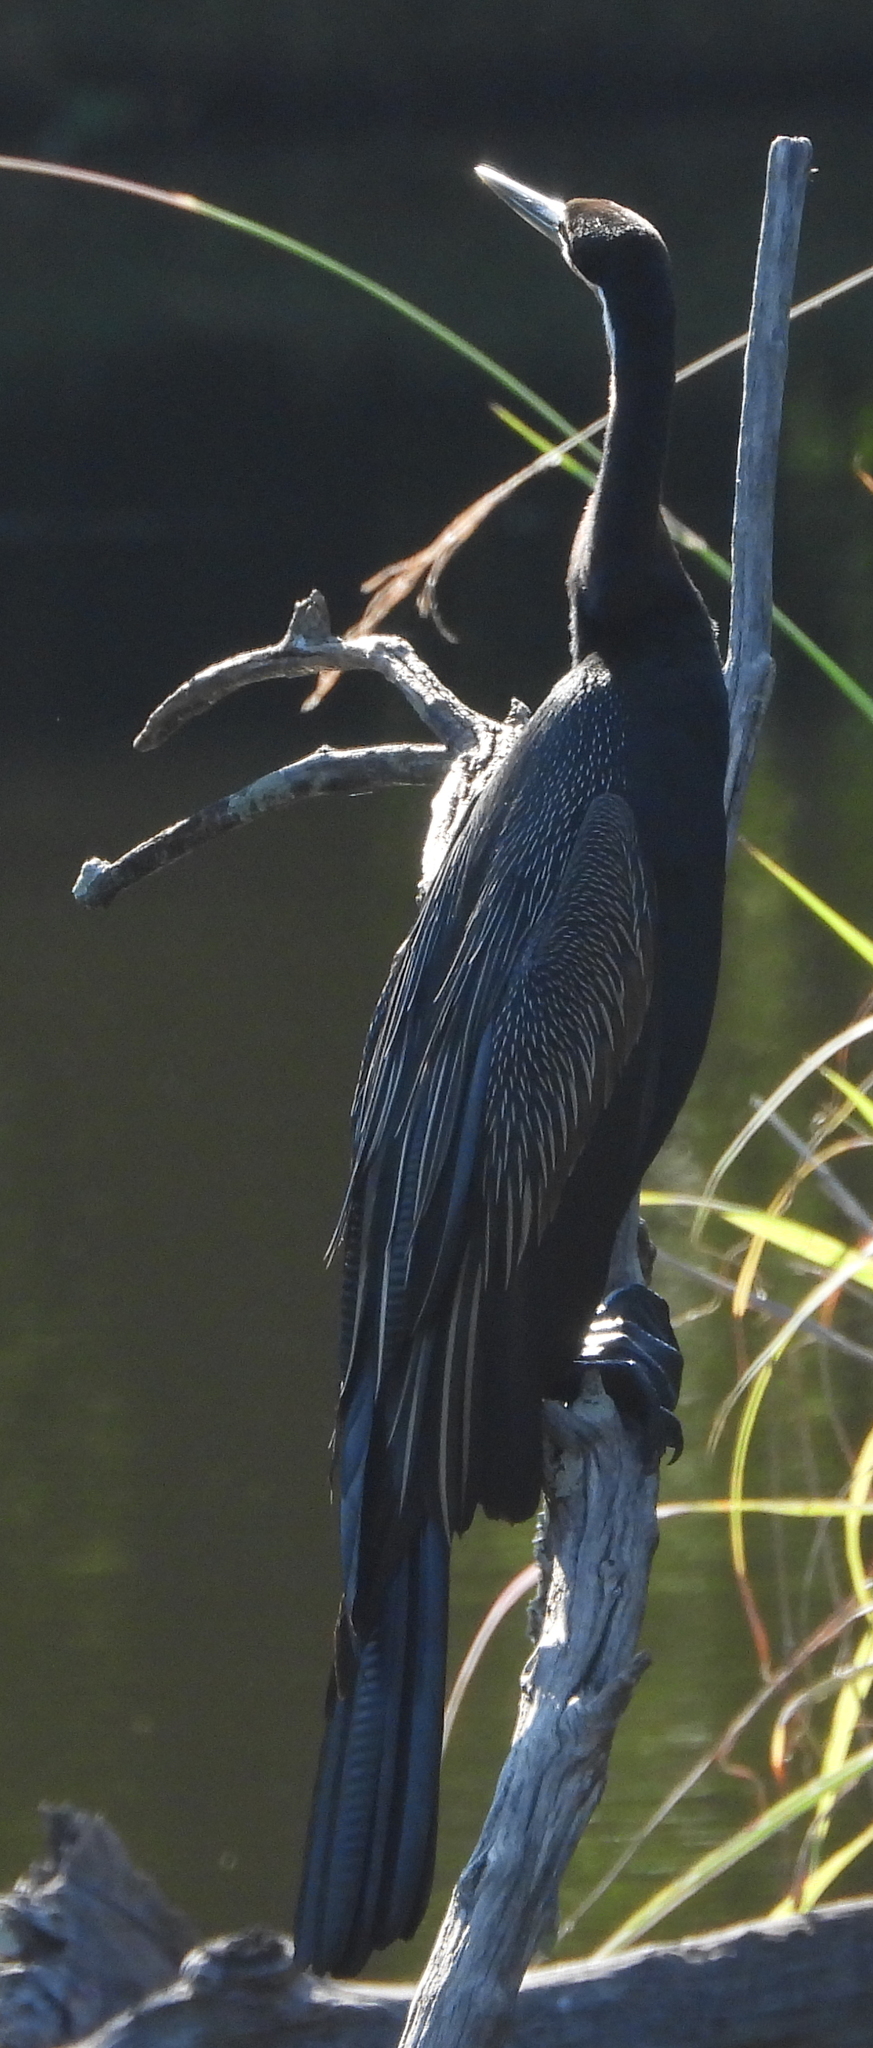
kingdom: Animalia
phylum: Chordata
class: Aves
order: Suliformes
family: Anhingidae
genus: Anhinga
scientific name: Anhinga rufa
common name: African darter
